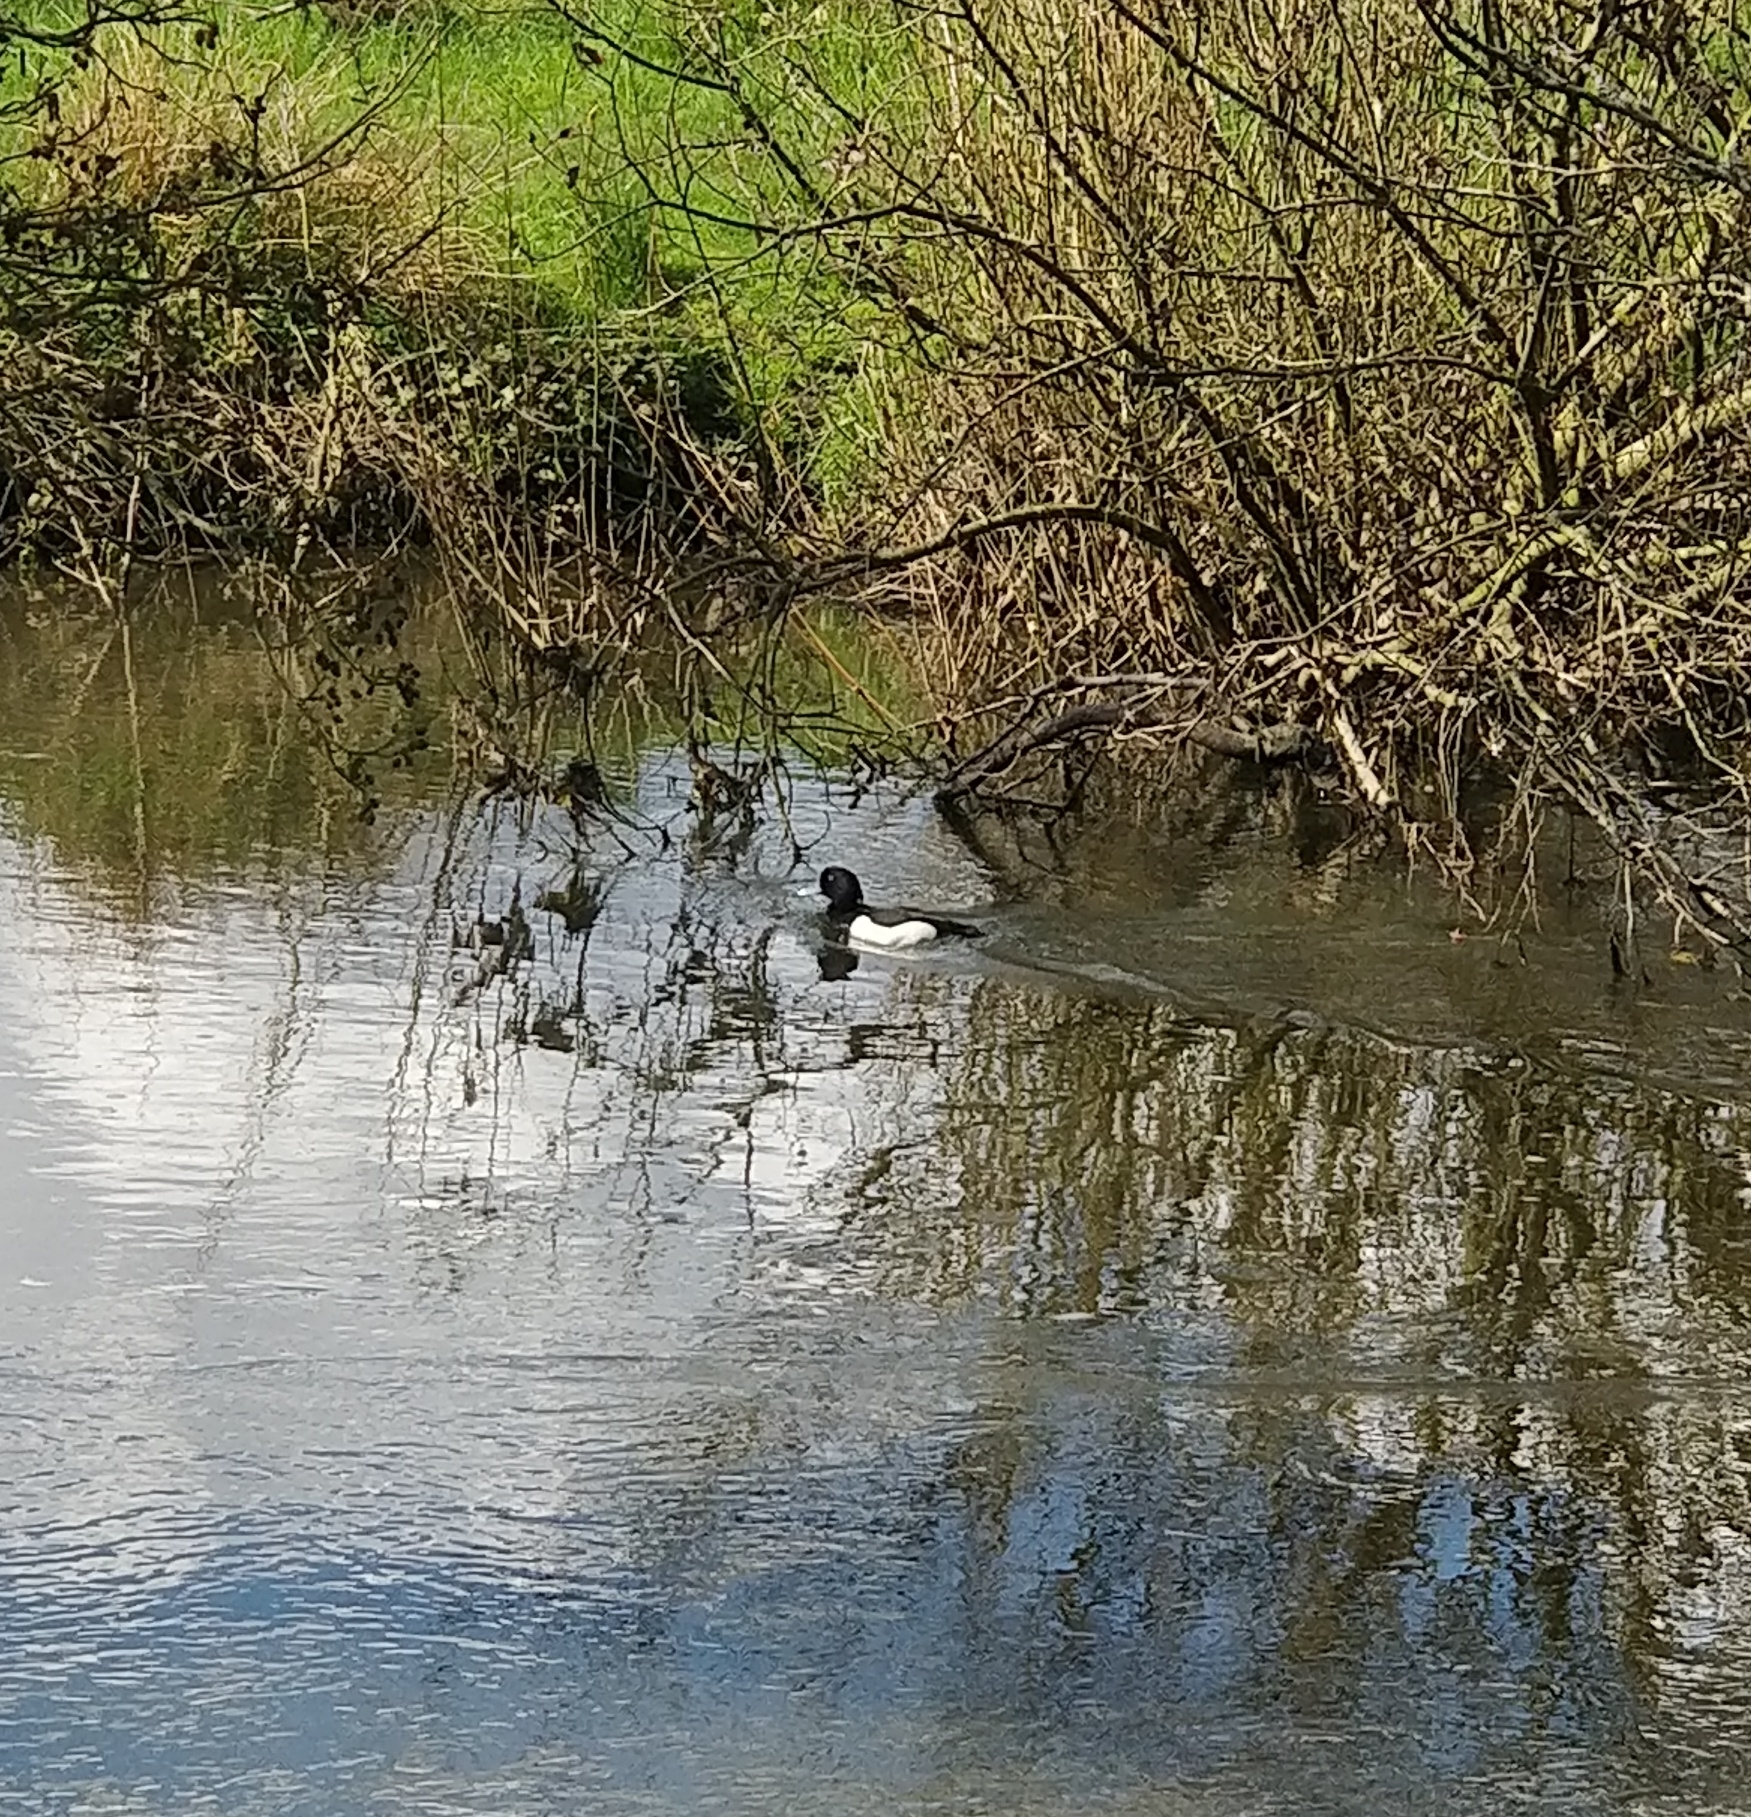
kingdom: Animalia
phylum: Chordata
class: Aves
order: Anseriformes
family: Anatidae
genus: Aythya
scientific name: Aythya fuligula
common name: Tufted duck
